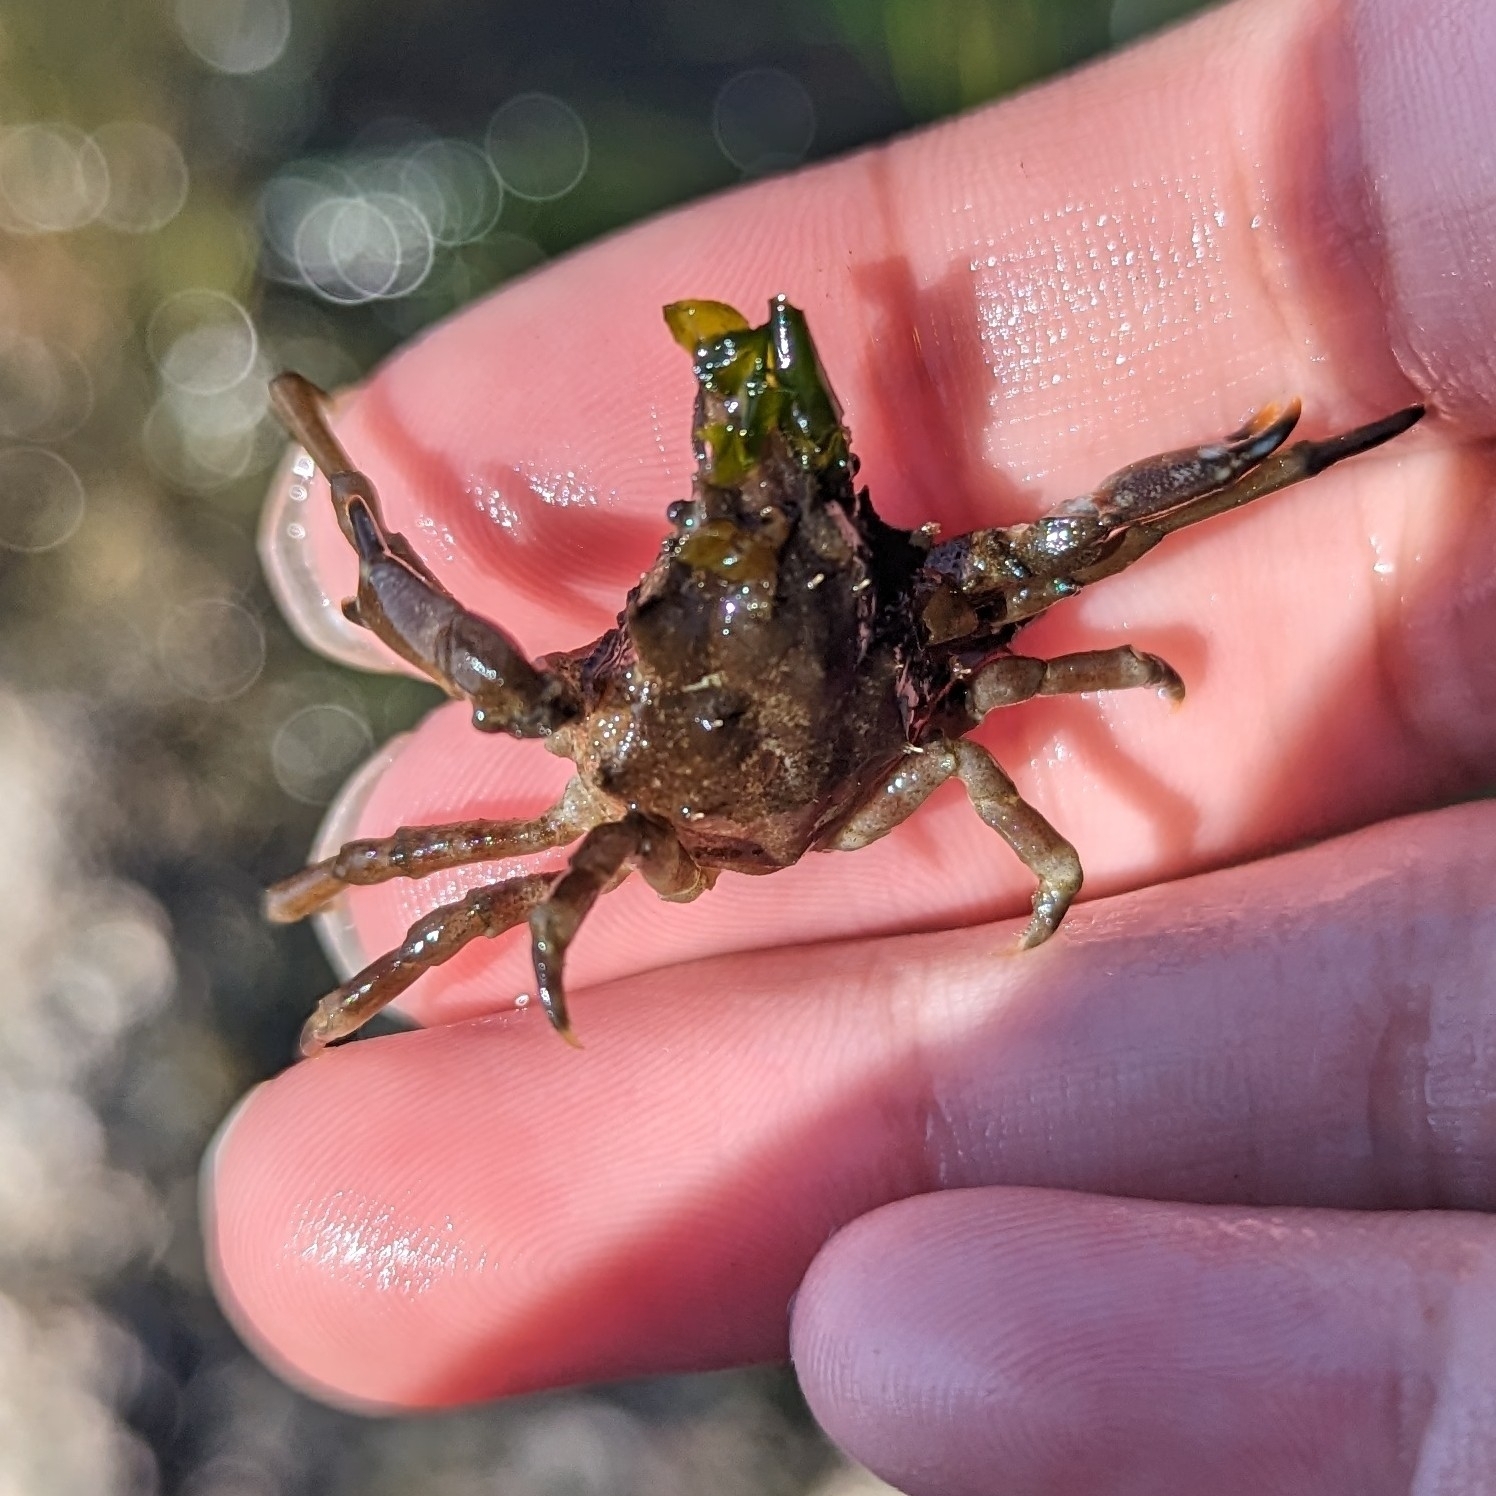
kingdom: Animalia
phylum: Arthropoda
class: Malacostraca
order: Decapoda
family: Epialtidae
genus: Pugettia
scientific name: Pugettia gracilis
